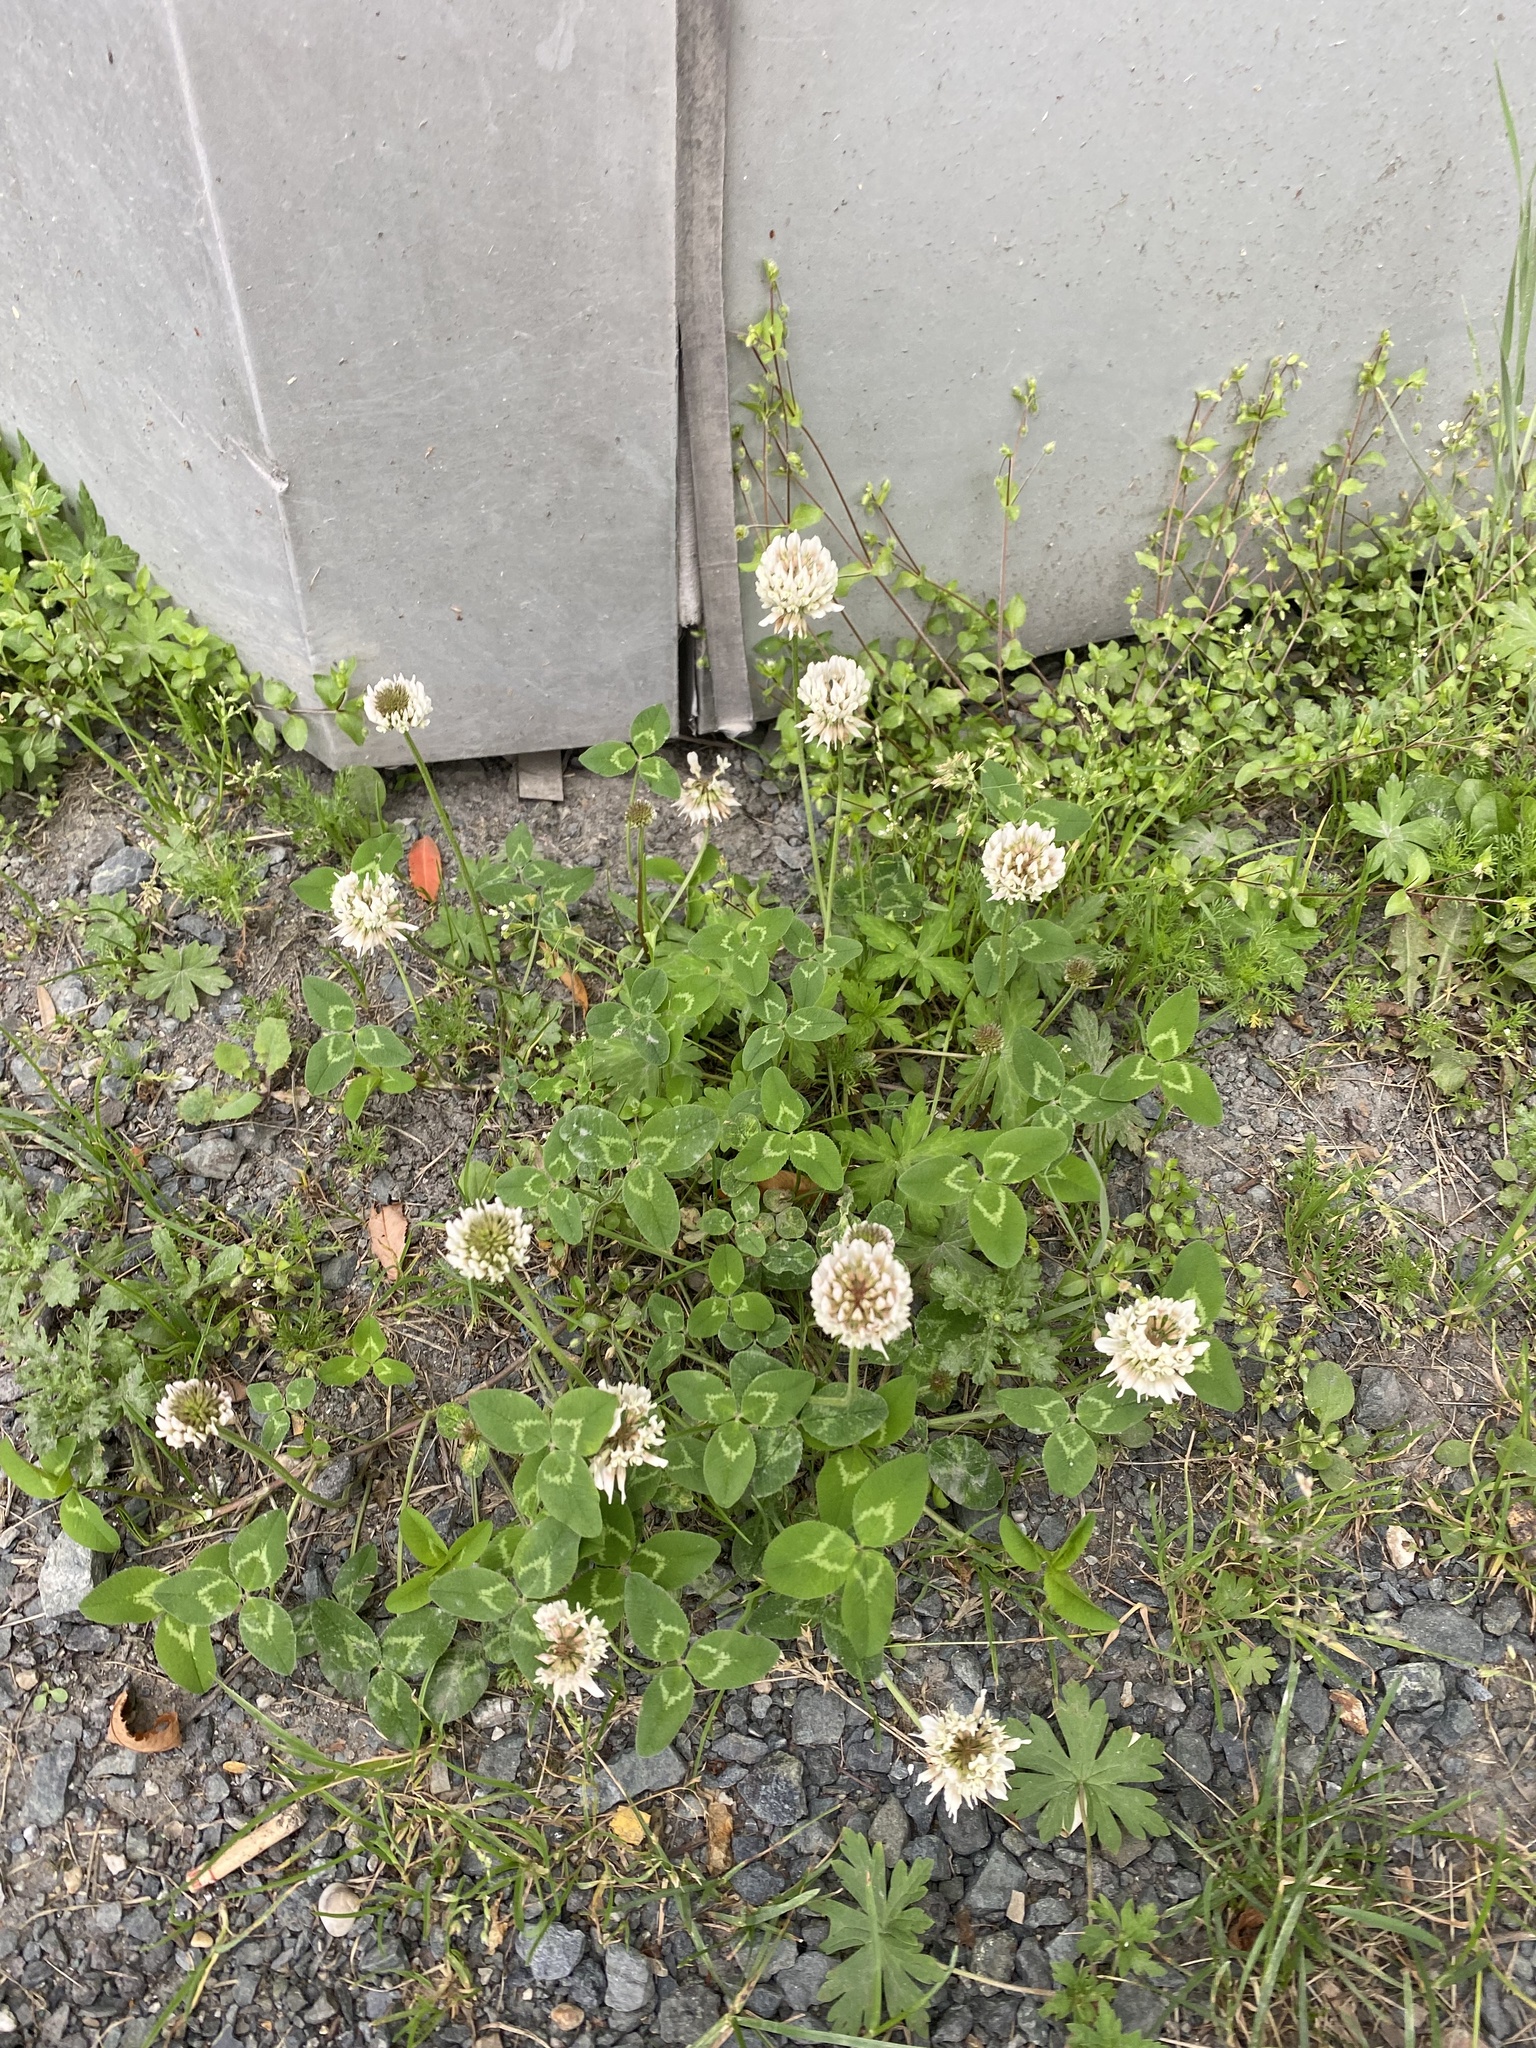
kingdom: Plantae
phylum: Tracheophyta
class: Magnoliopsida
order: Fabales
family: Fabaceae
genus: Trifolium
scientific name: Trifolium repens
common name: White clover
